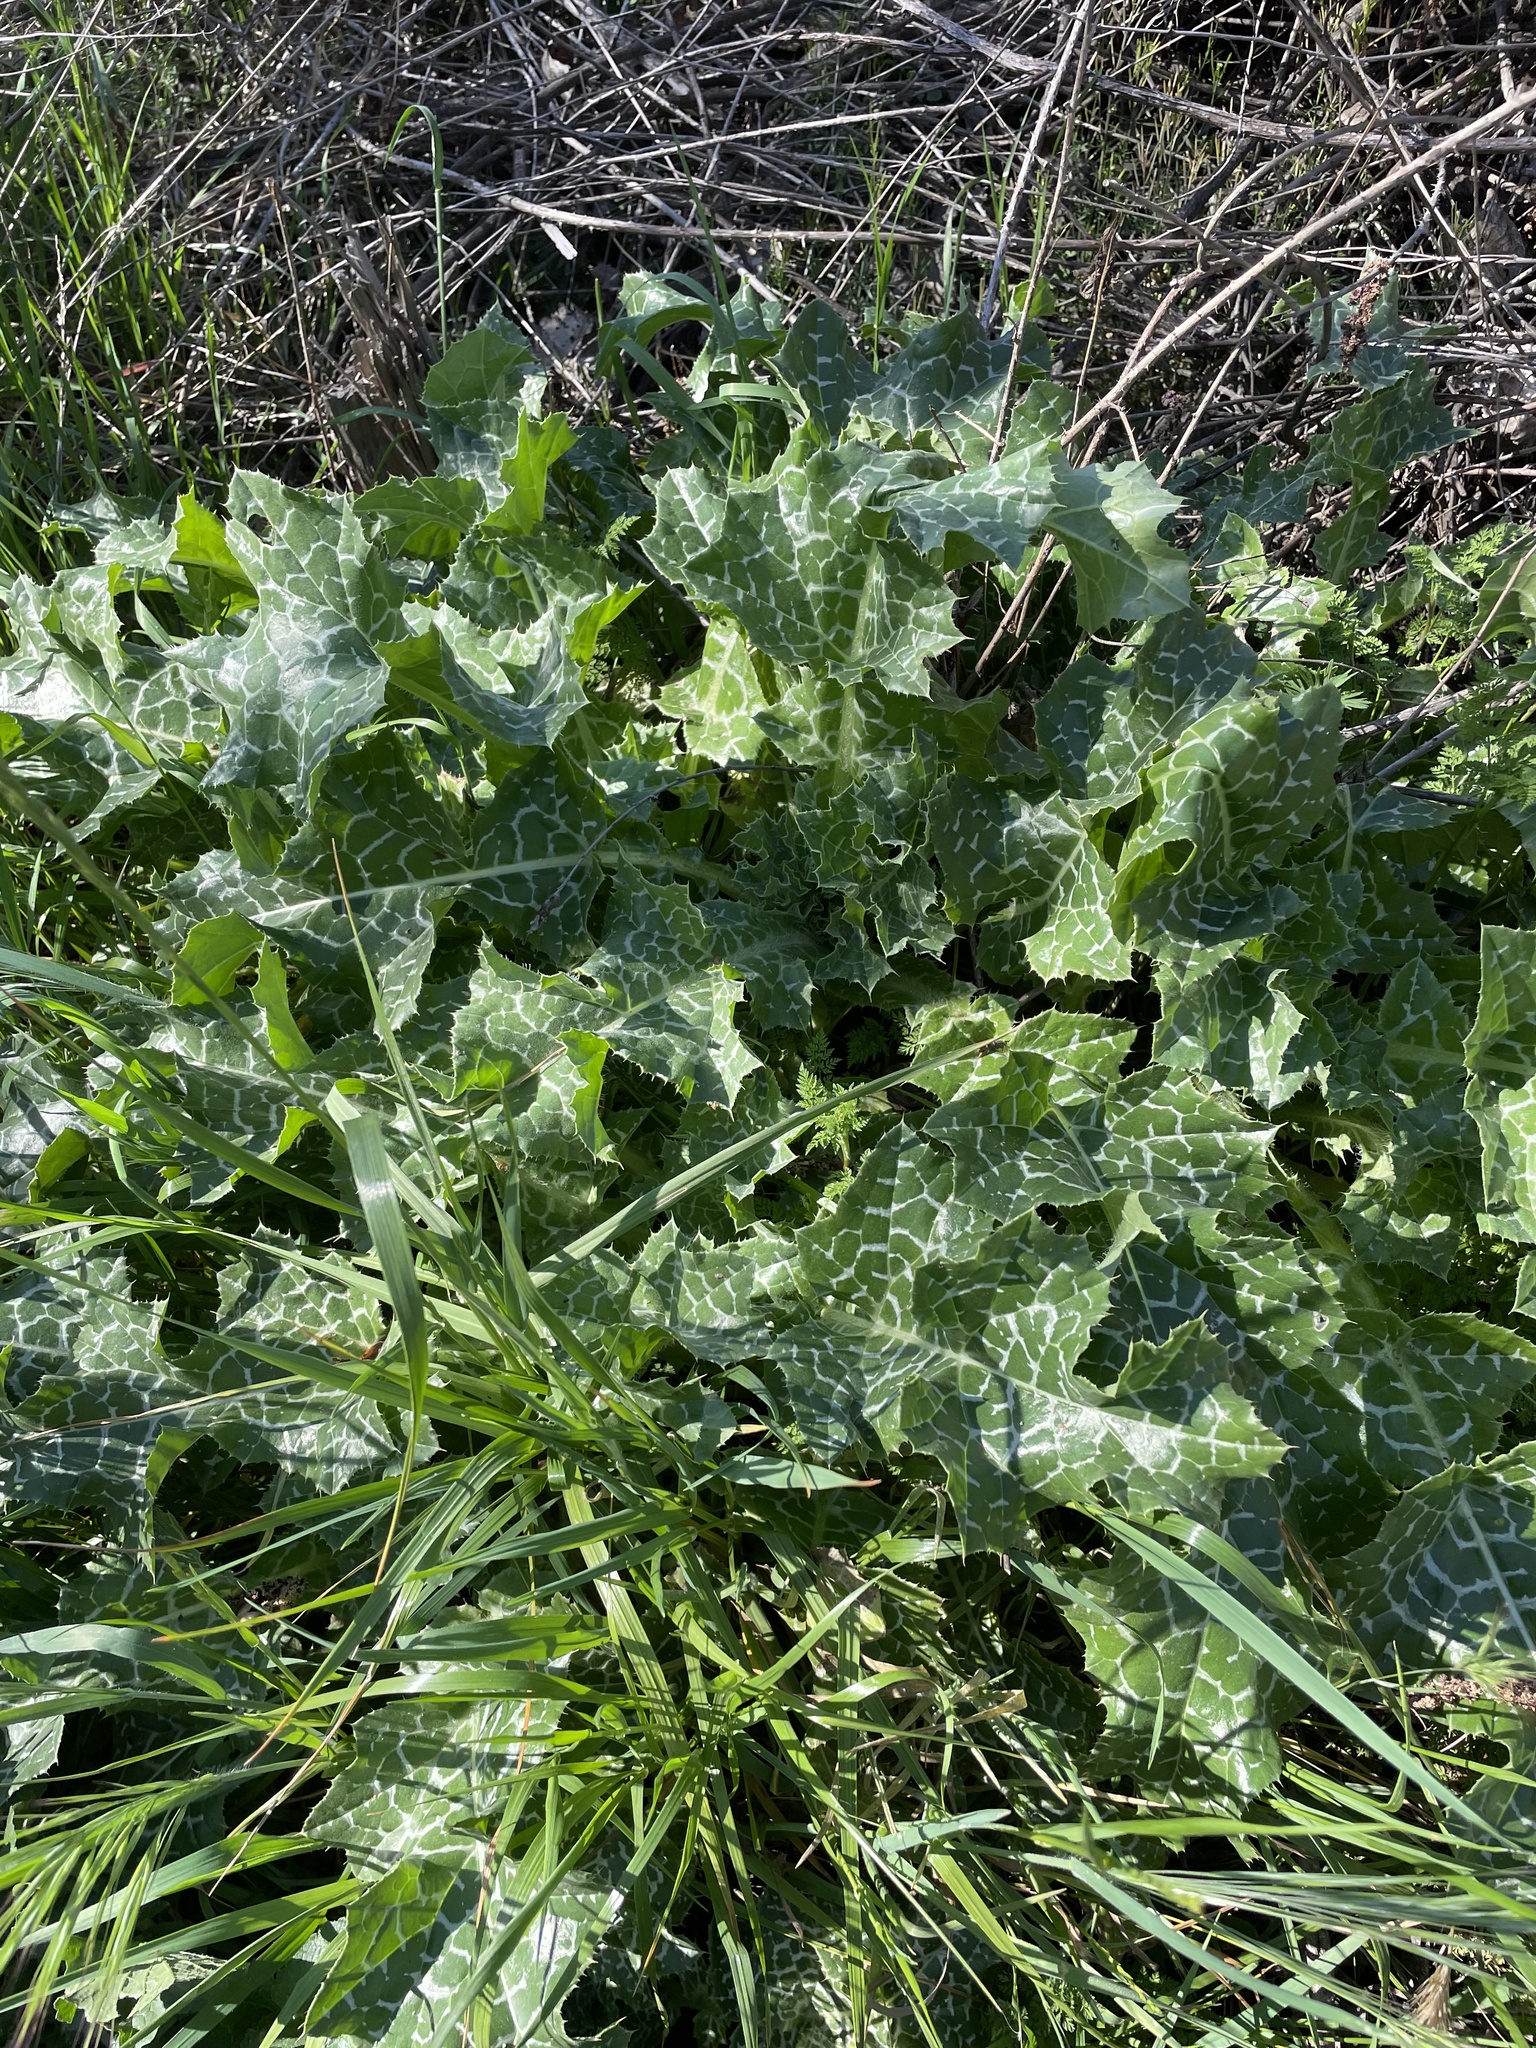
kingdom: Plantae
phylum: Tracheophyta
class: Magnoliopsida
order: Asterales
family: Asteraceae
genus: Silybum
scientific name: Silybum marianum
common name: Milk thistle
